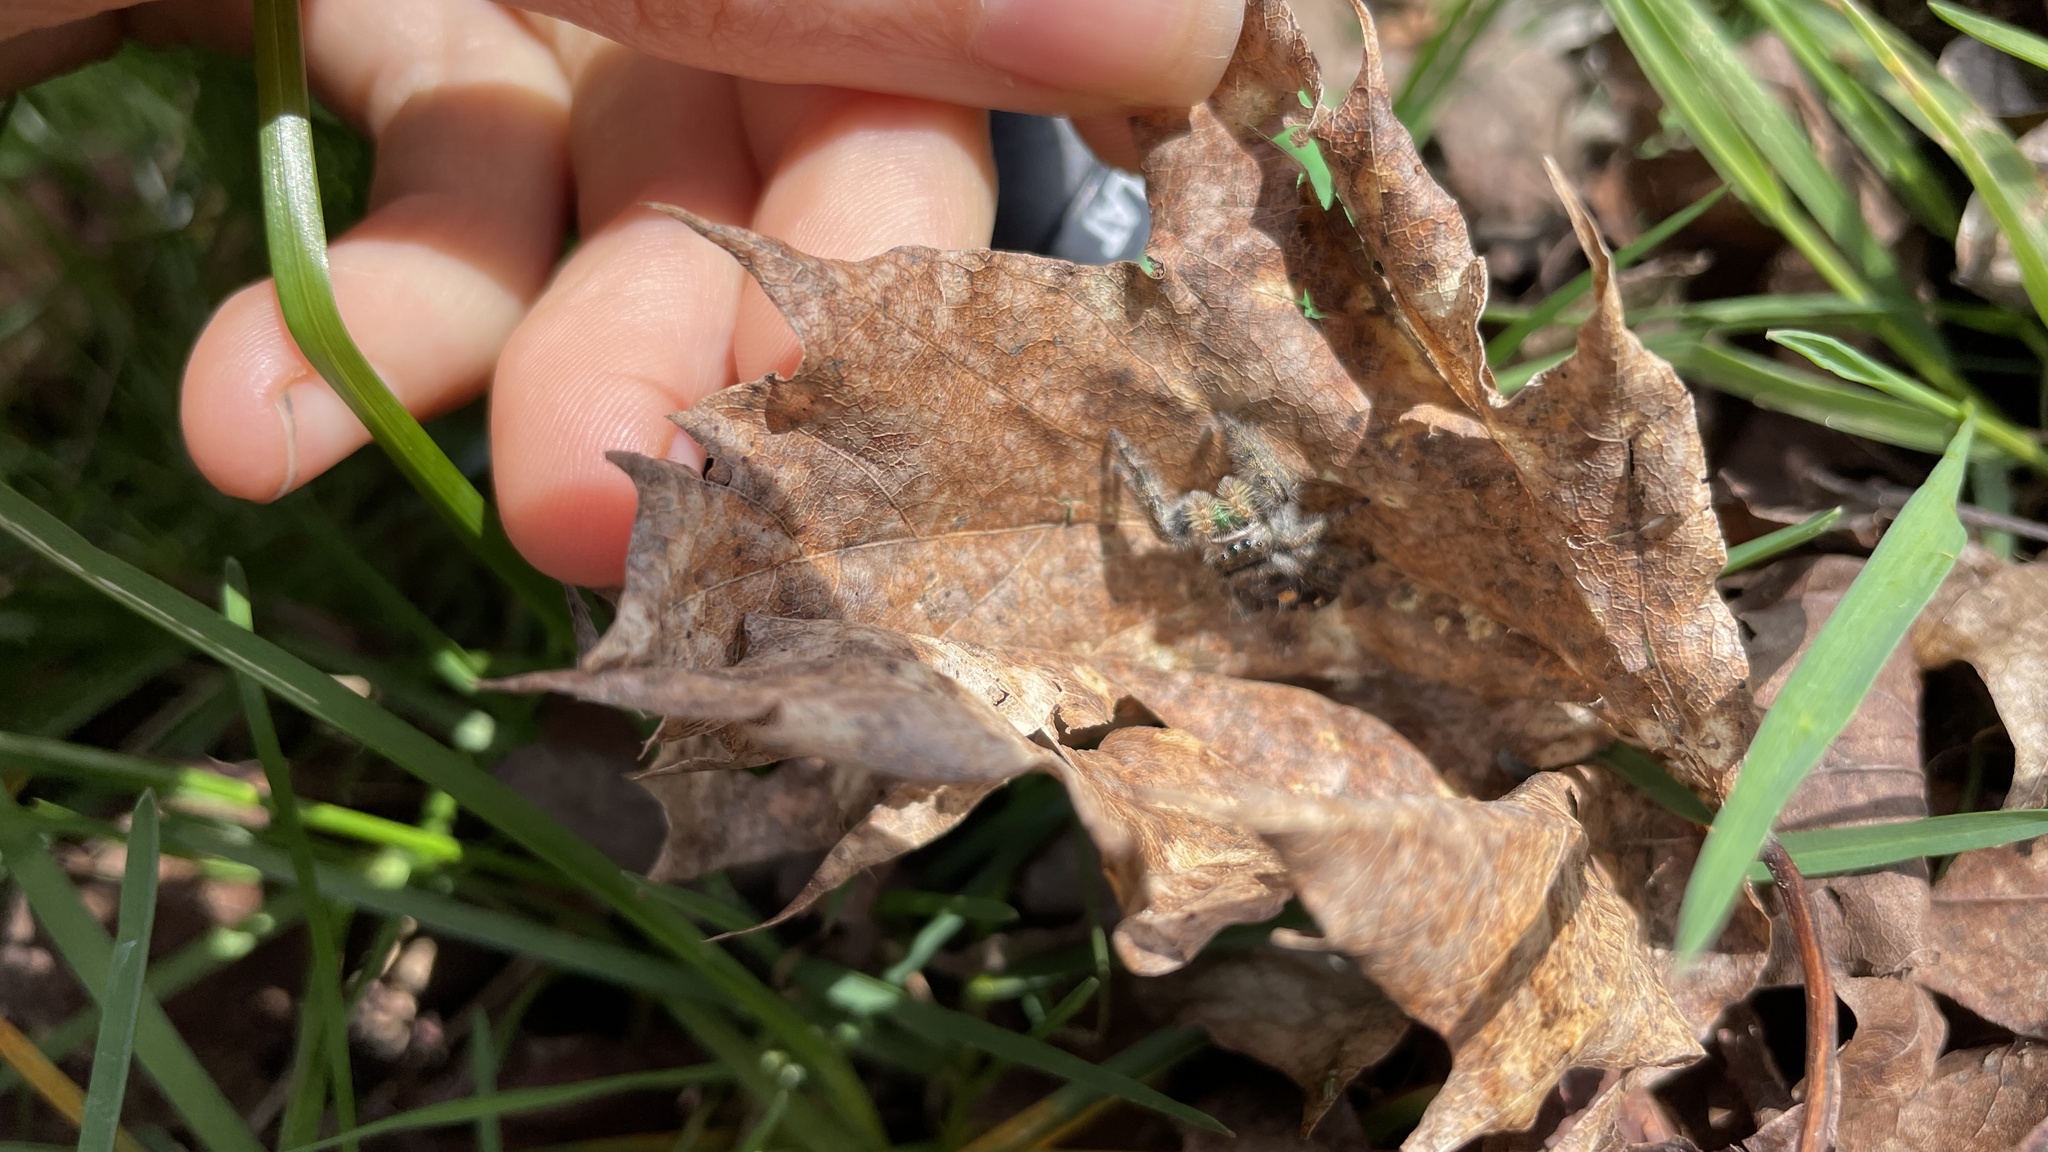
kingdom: Animalia
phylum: Arthropoda
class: Arachnida
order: Araneae
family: Salticidae
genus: Phidippus
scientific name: Phidippus audax
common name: Bold jumper
